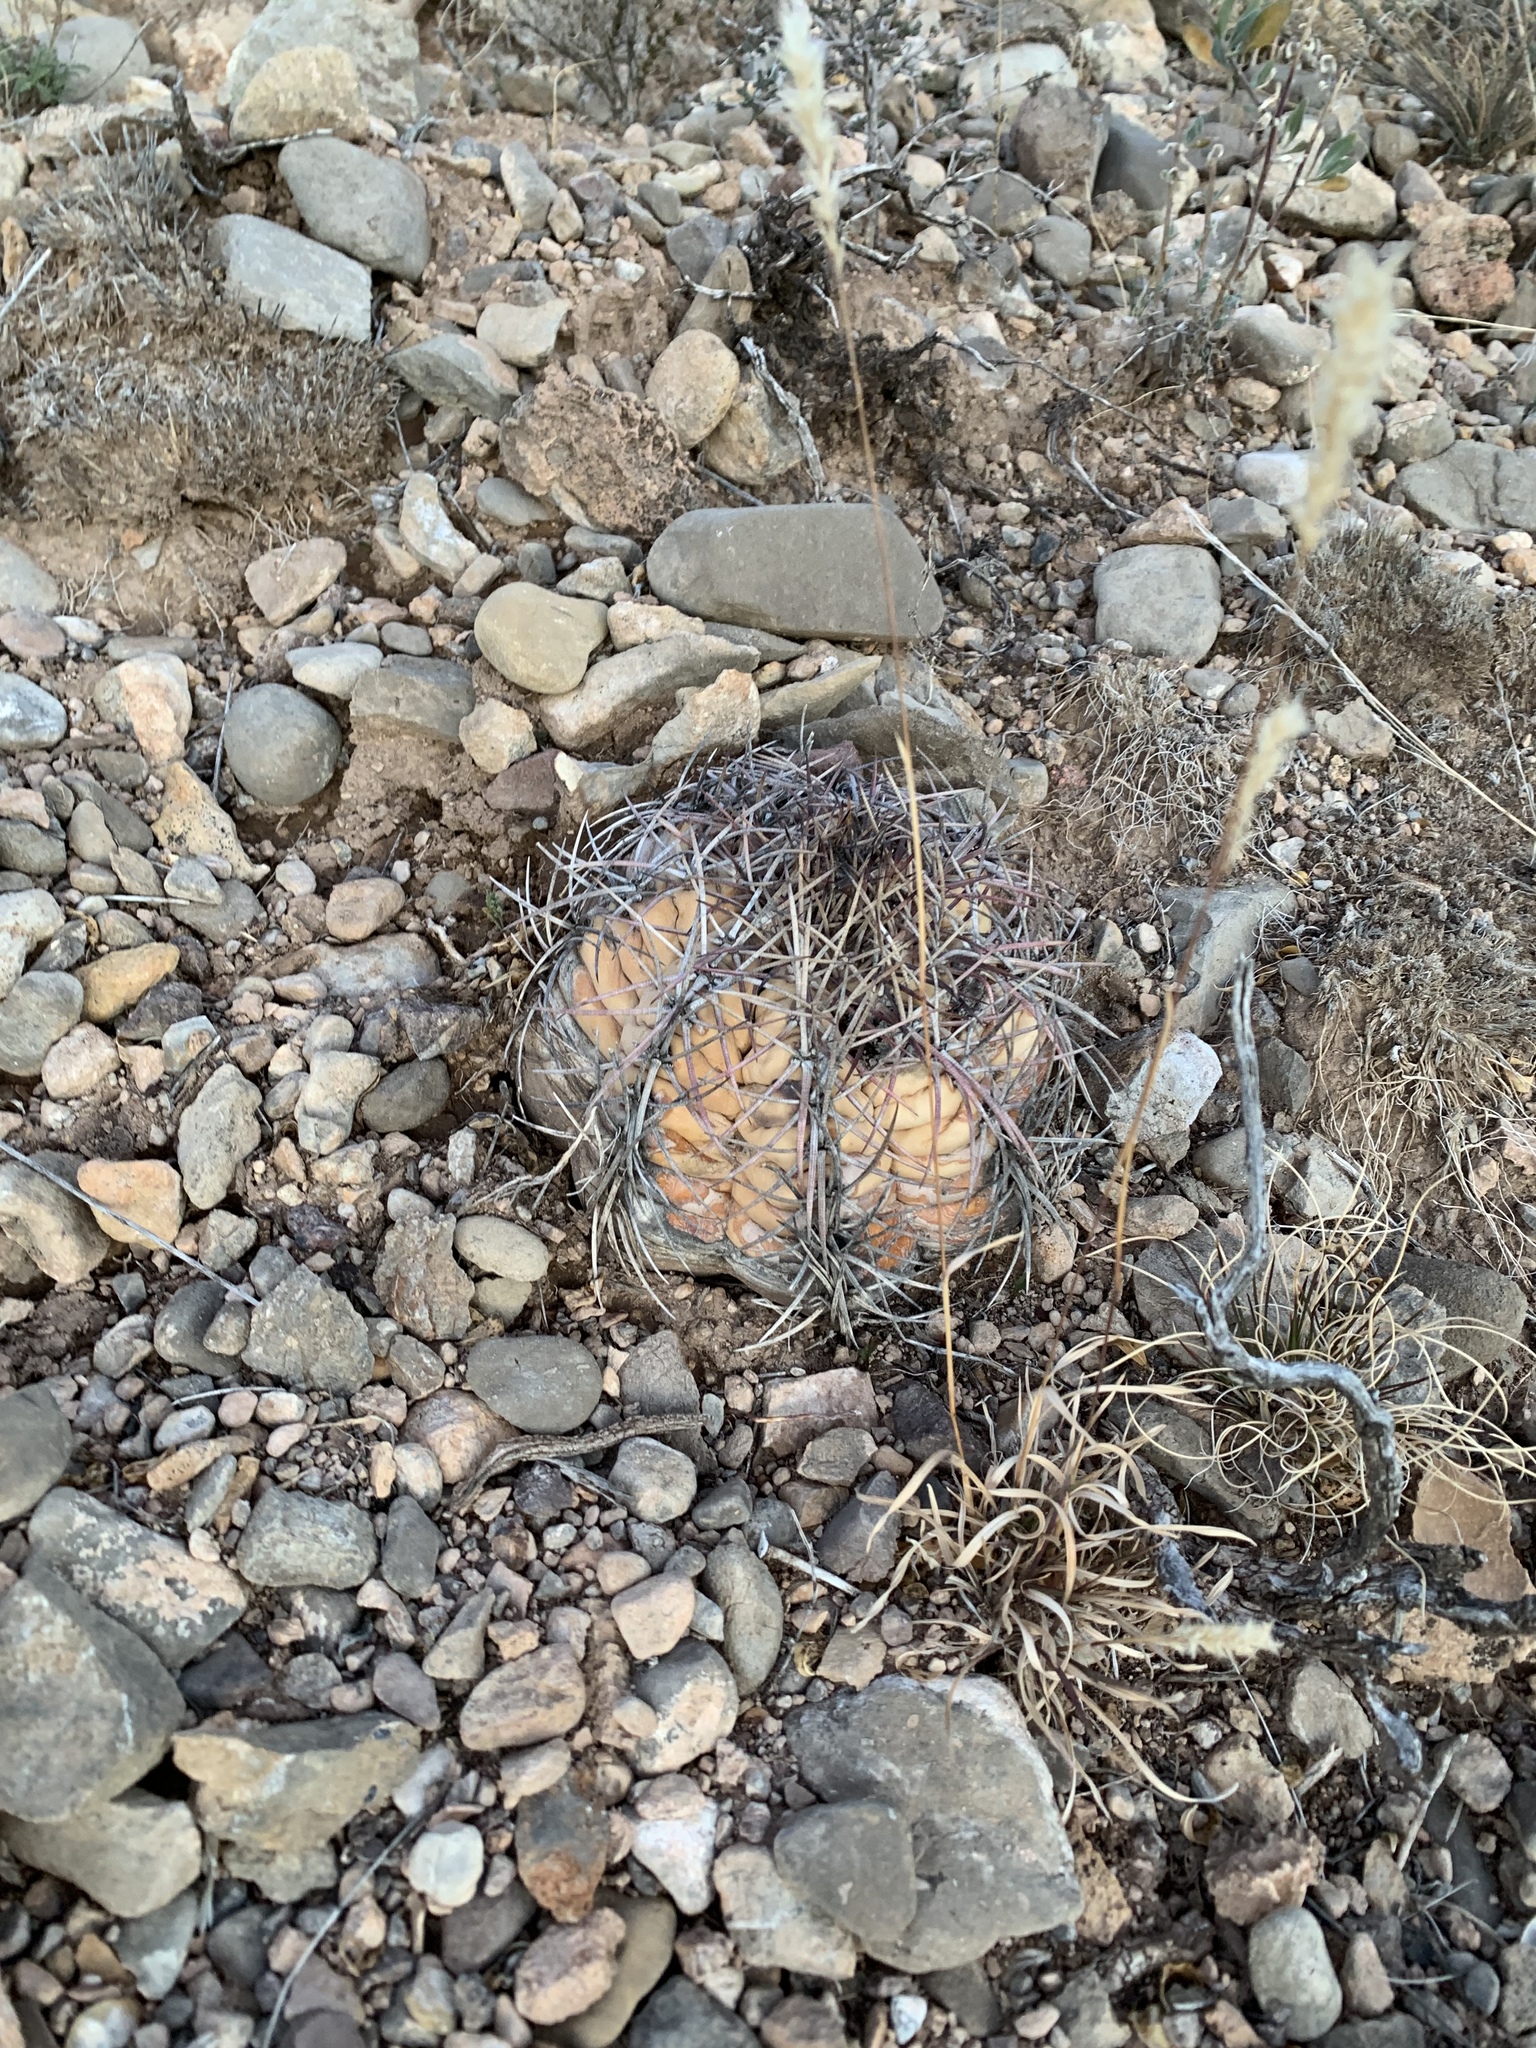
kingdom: Plantae
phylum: Tracheophyta
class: Magnoliopsida
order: Caryophyllales
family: Cactaceae
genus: Echinocactus
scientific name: Echinocactus horizonthalonius
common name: Devilshead
